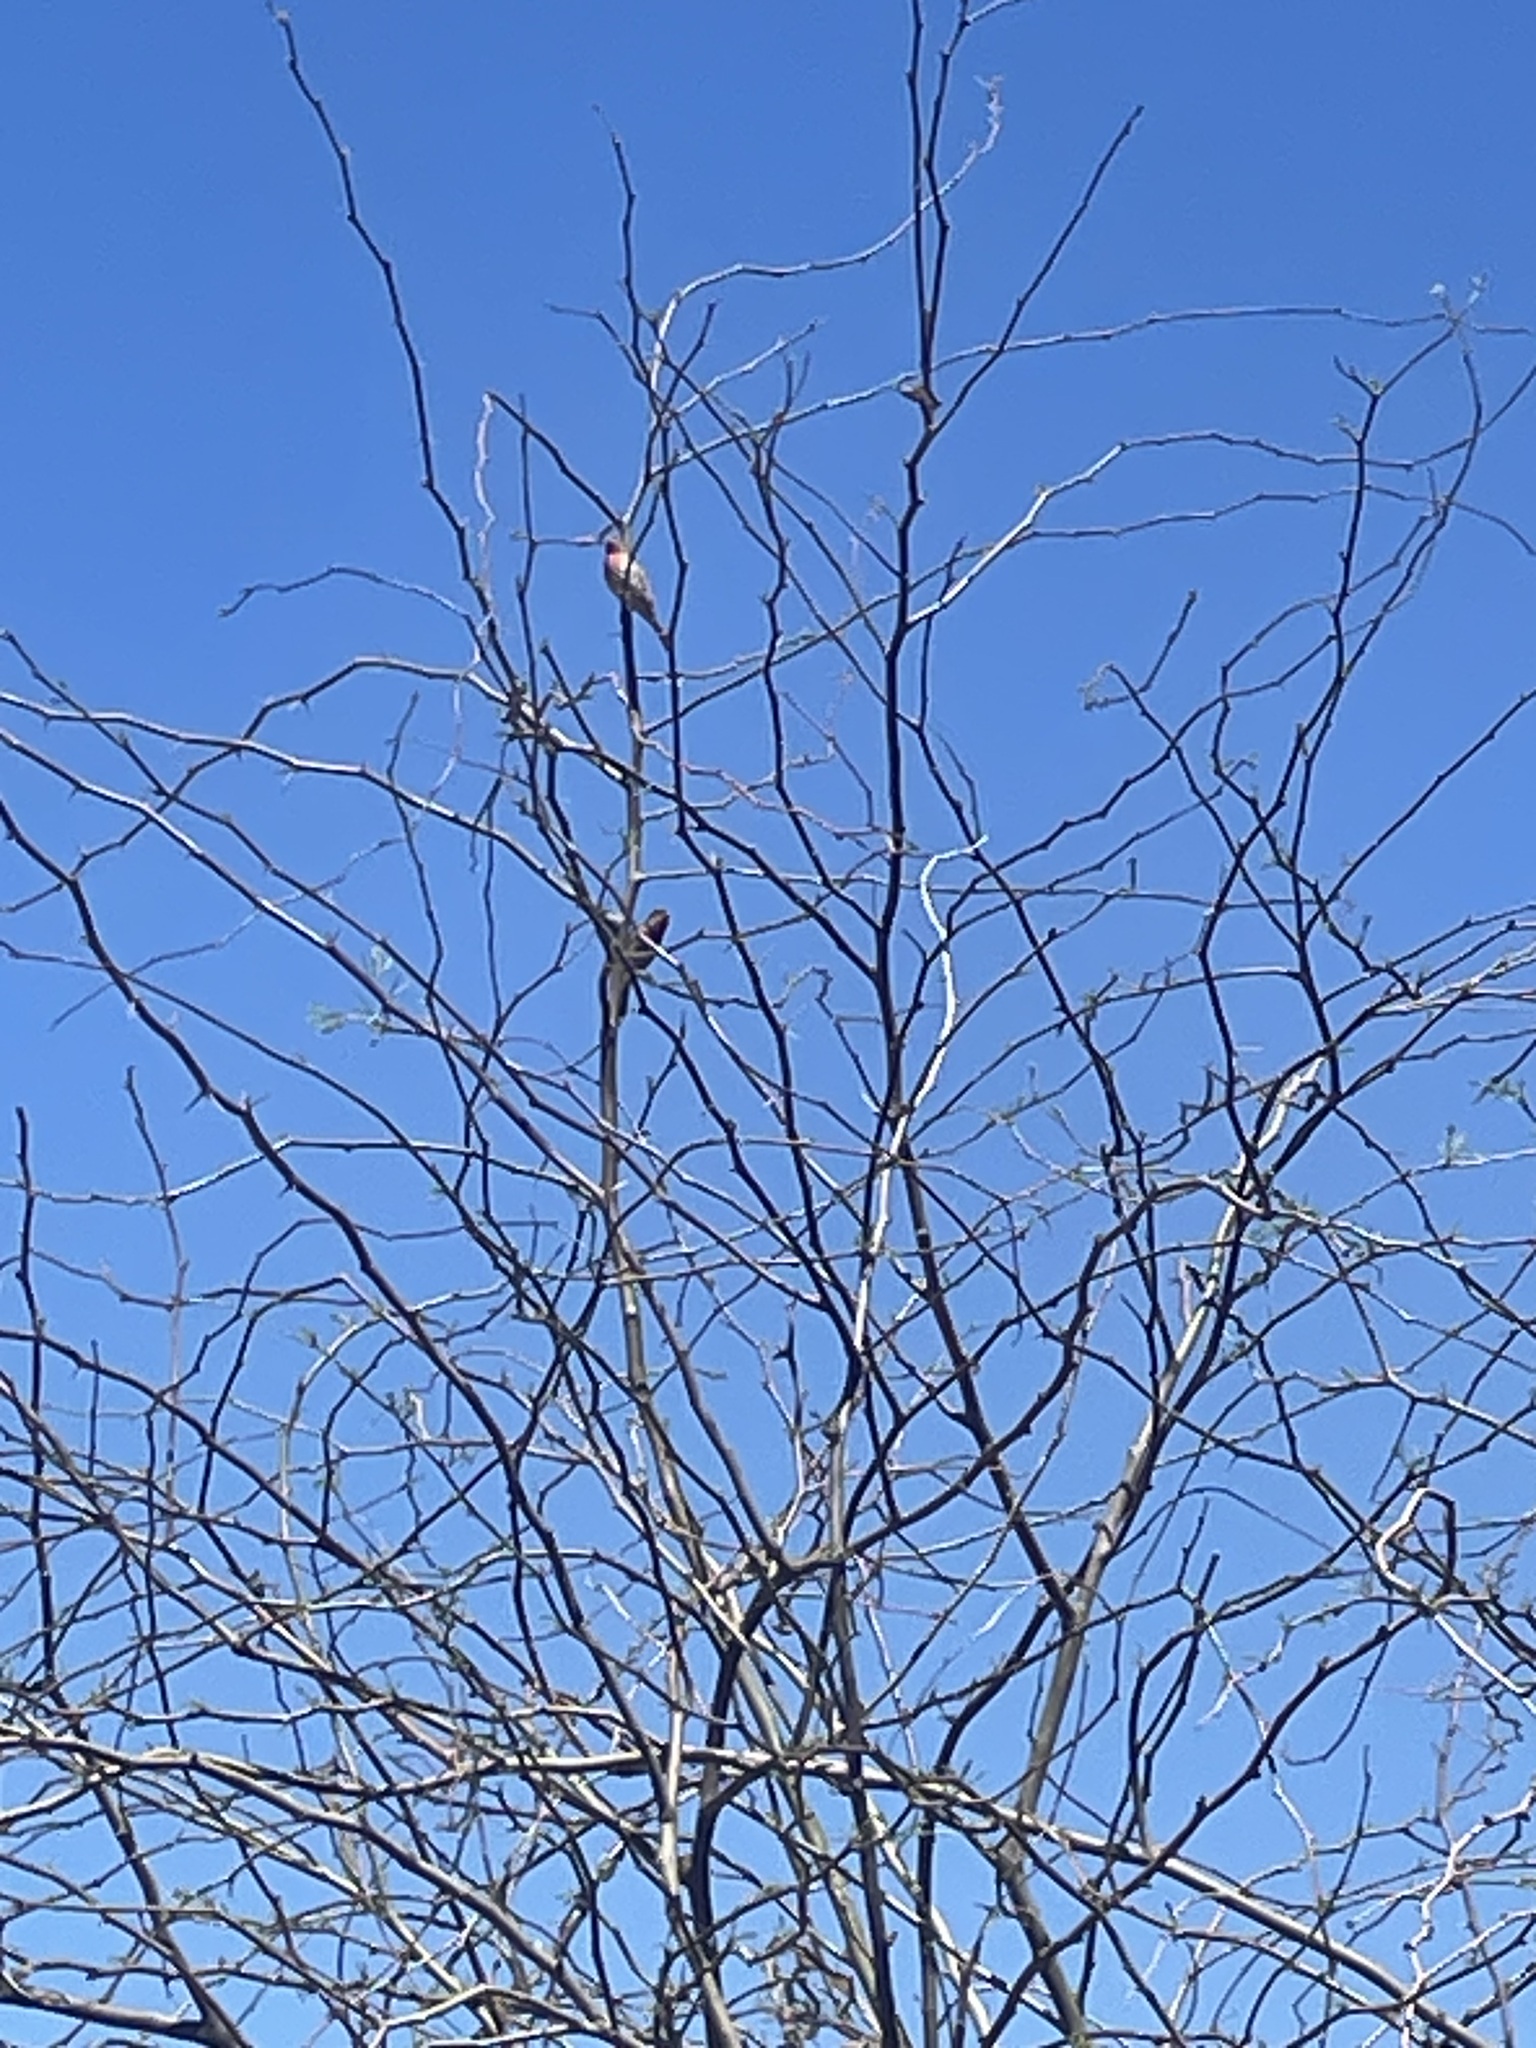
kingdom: Animalia
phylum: Chordata
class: Aves
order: Passeriformes
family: Fringillidae
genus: Haemorhous
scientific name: Haemorhous mexicanus
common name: House finch
